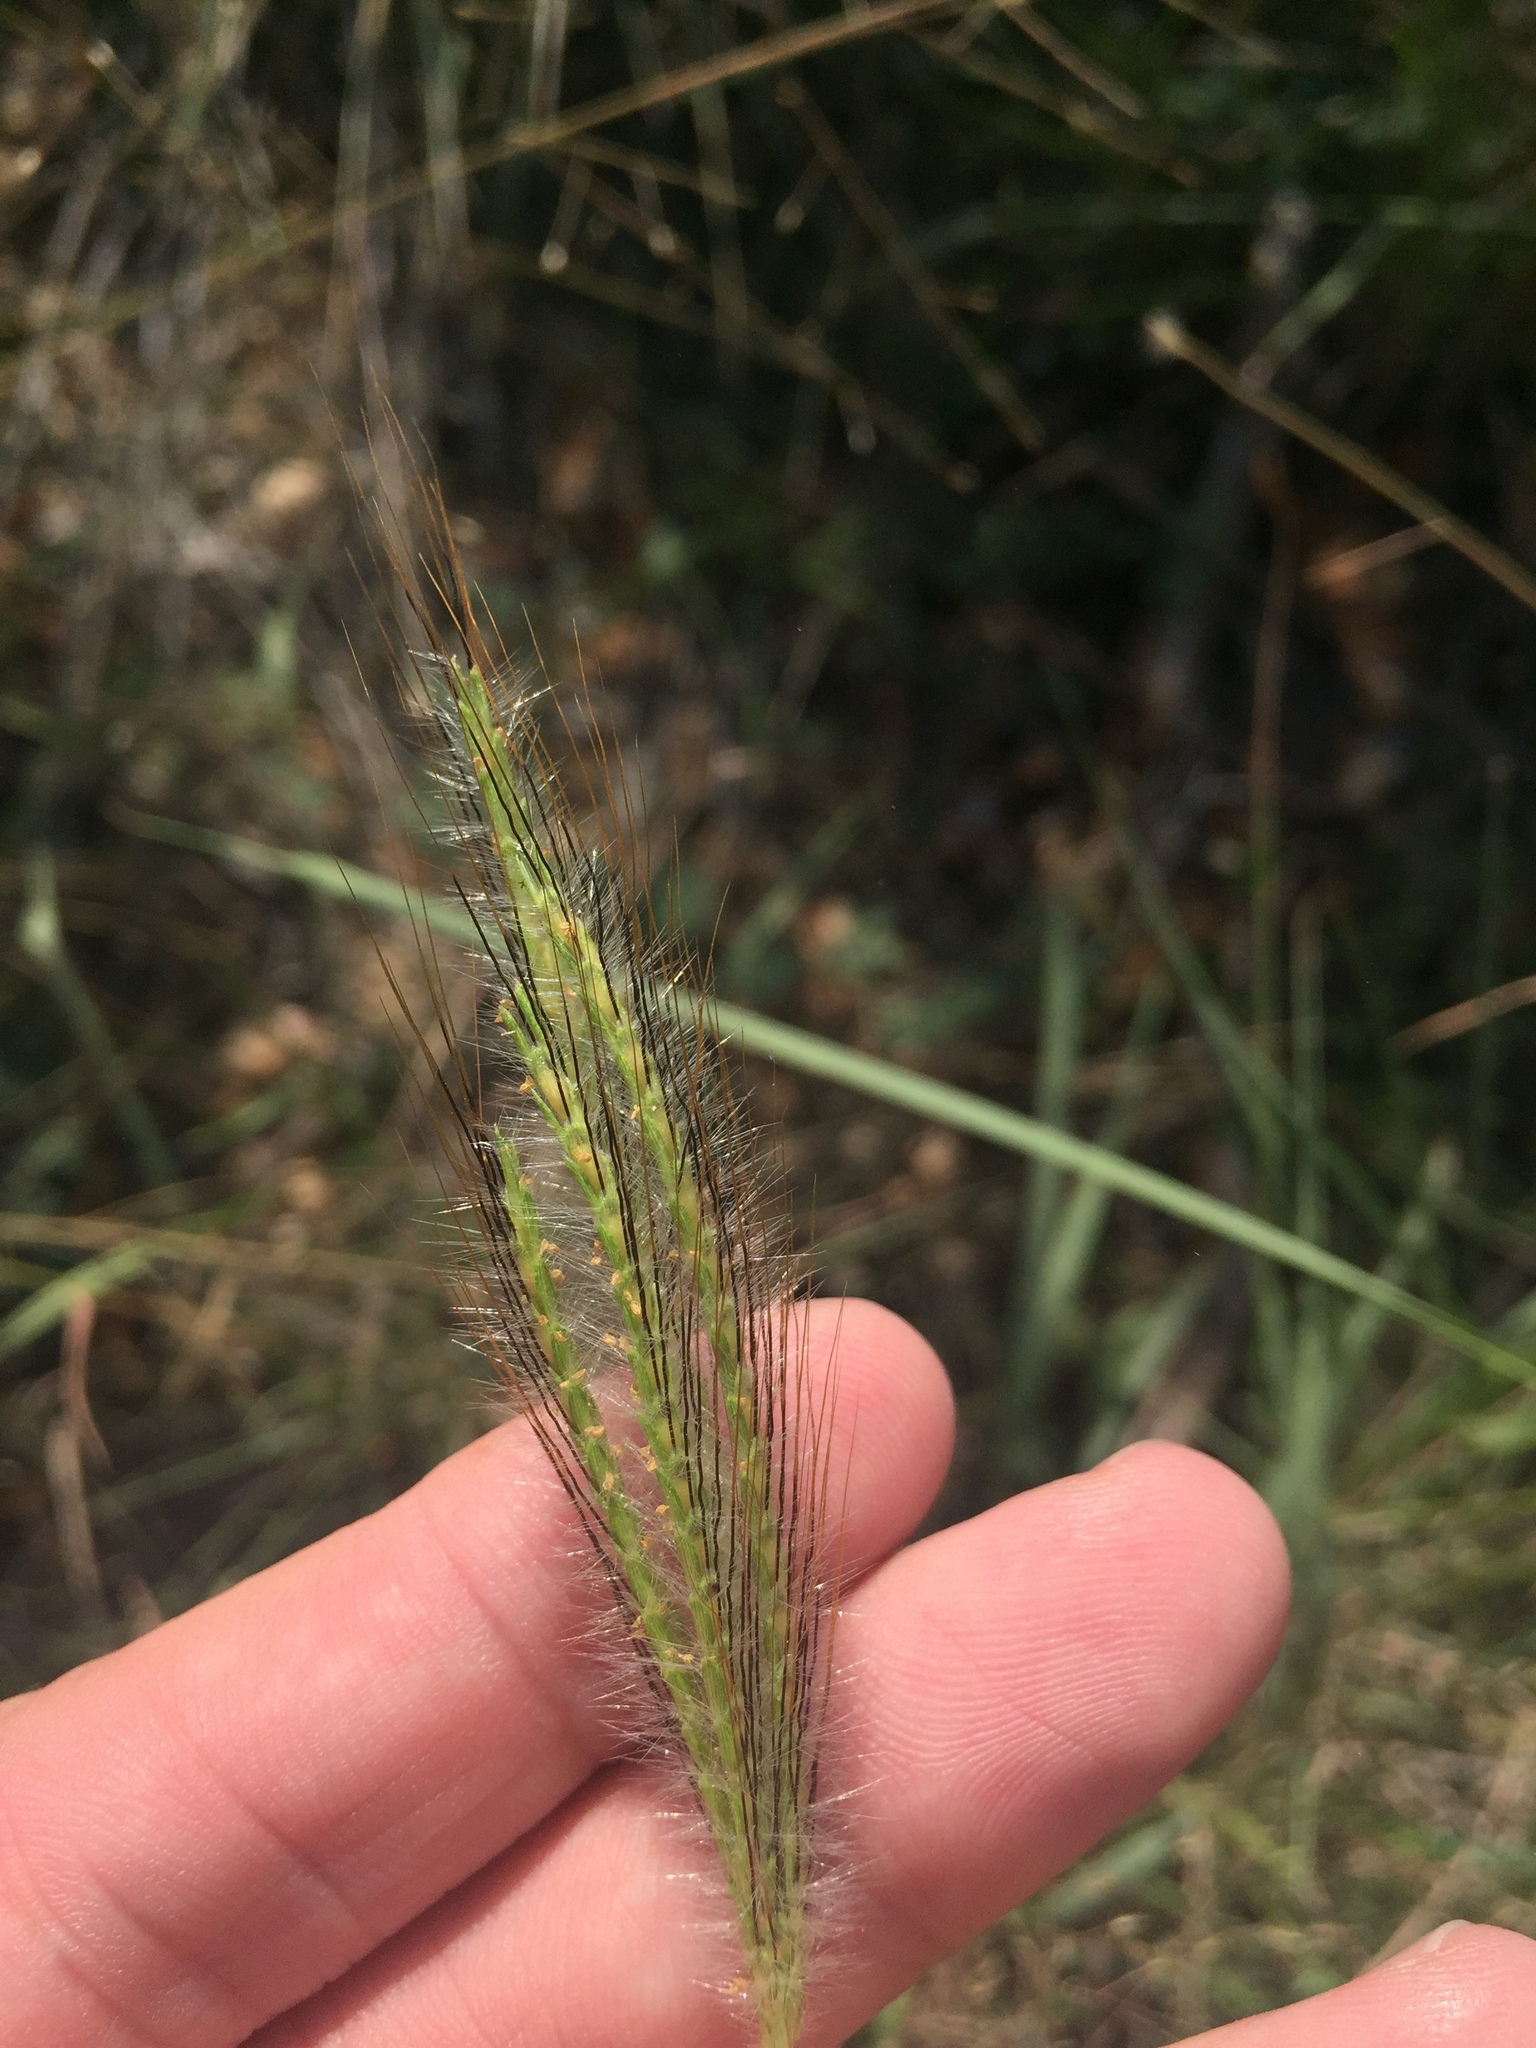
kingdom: Plantae
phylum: Tracheophyta
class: Liliopsida
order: Poales
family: Poaceae
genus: Dichanthium
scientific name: Dichanthium sericeum
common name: Silky bluestem
